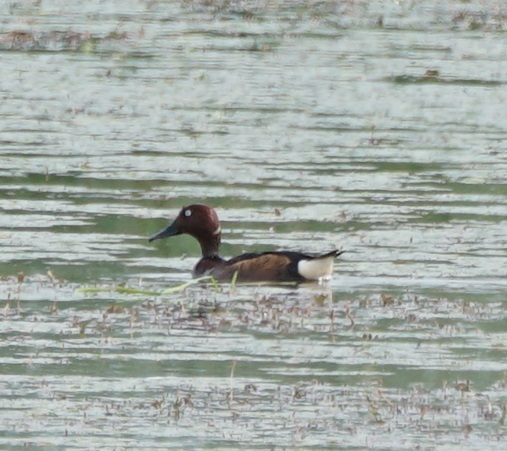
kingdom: Animalia
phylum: Chordata
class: Aves
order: Anseriformes
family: Anatidae
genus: Aythya
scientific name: Aythya nyroca
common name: Ferruginous duck
